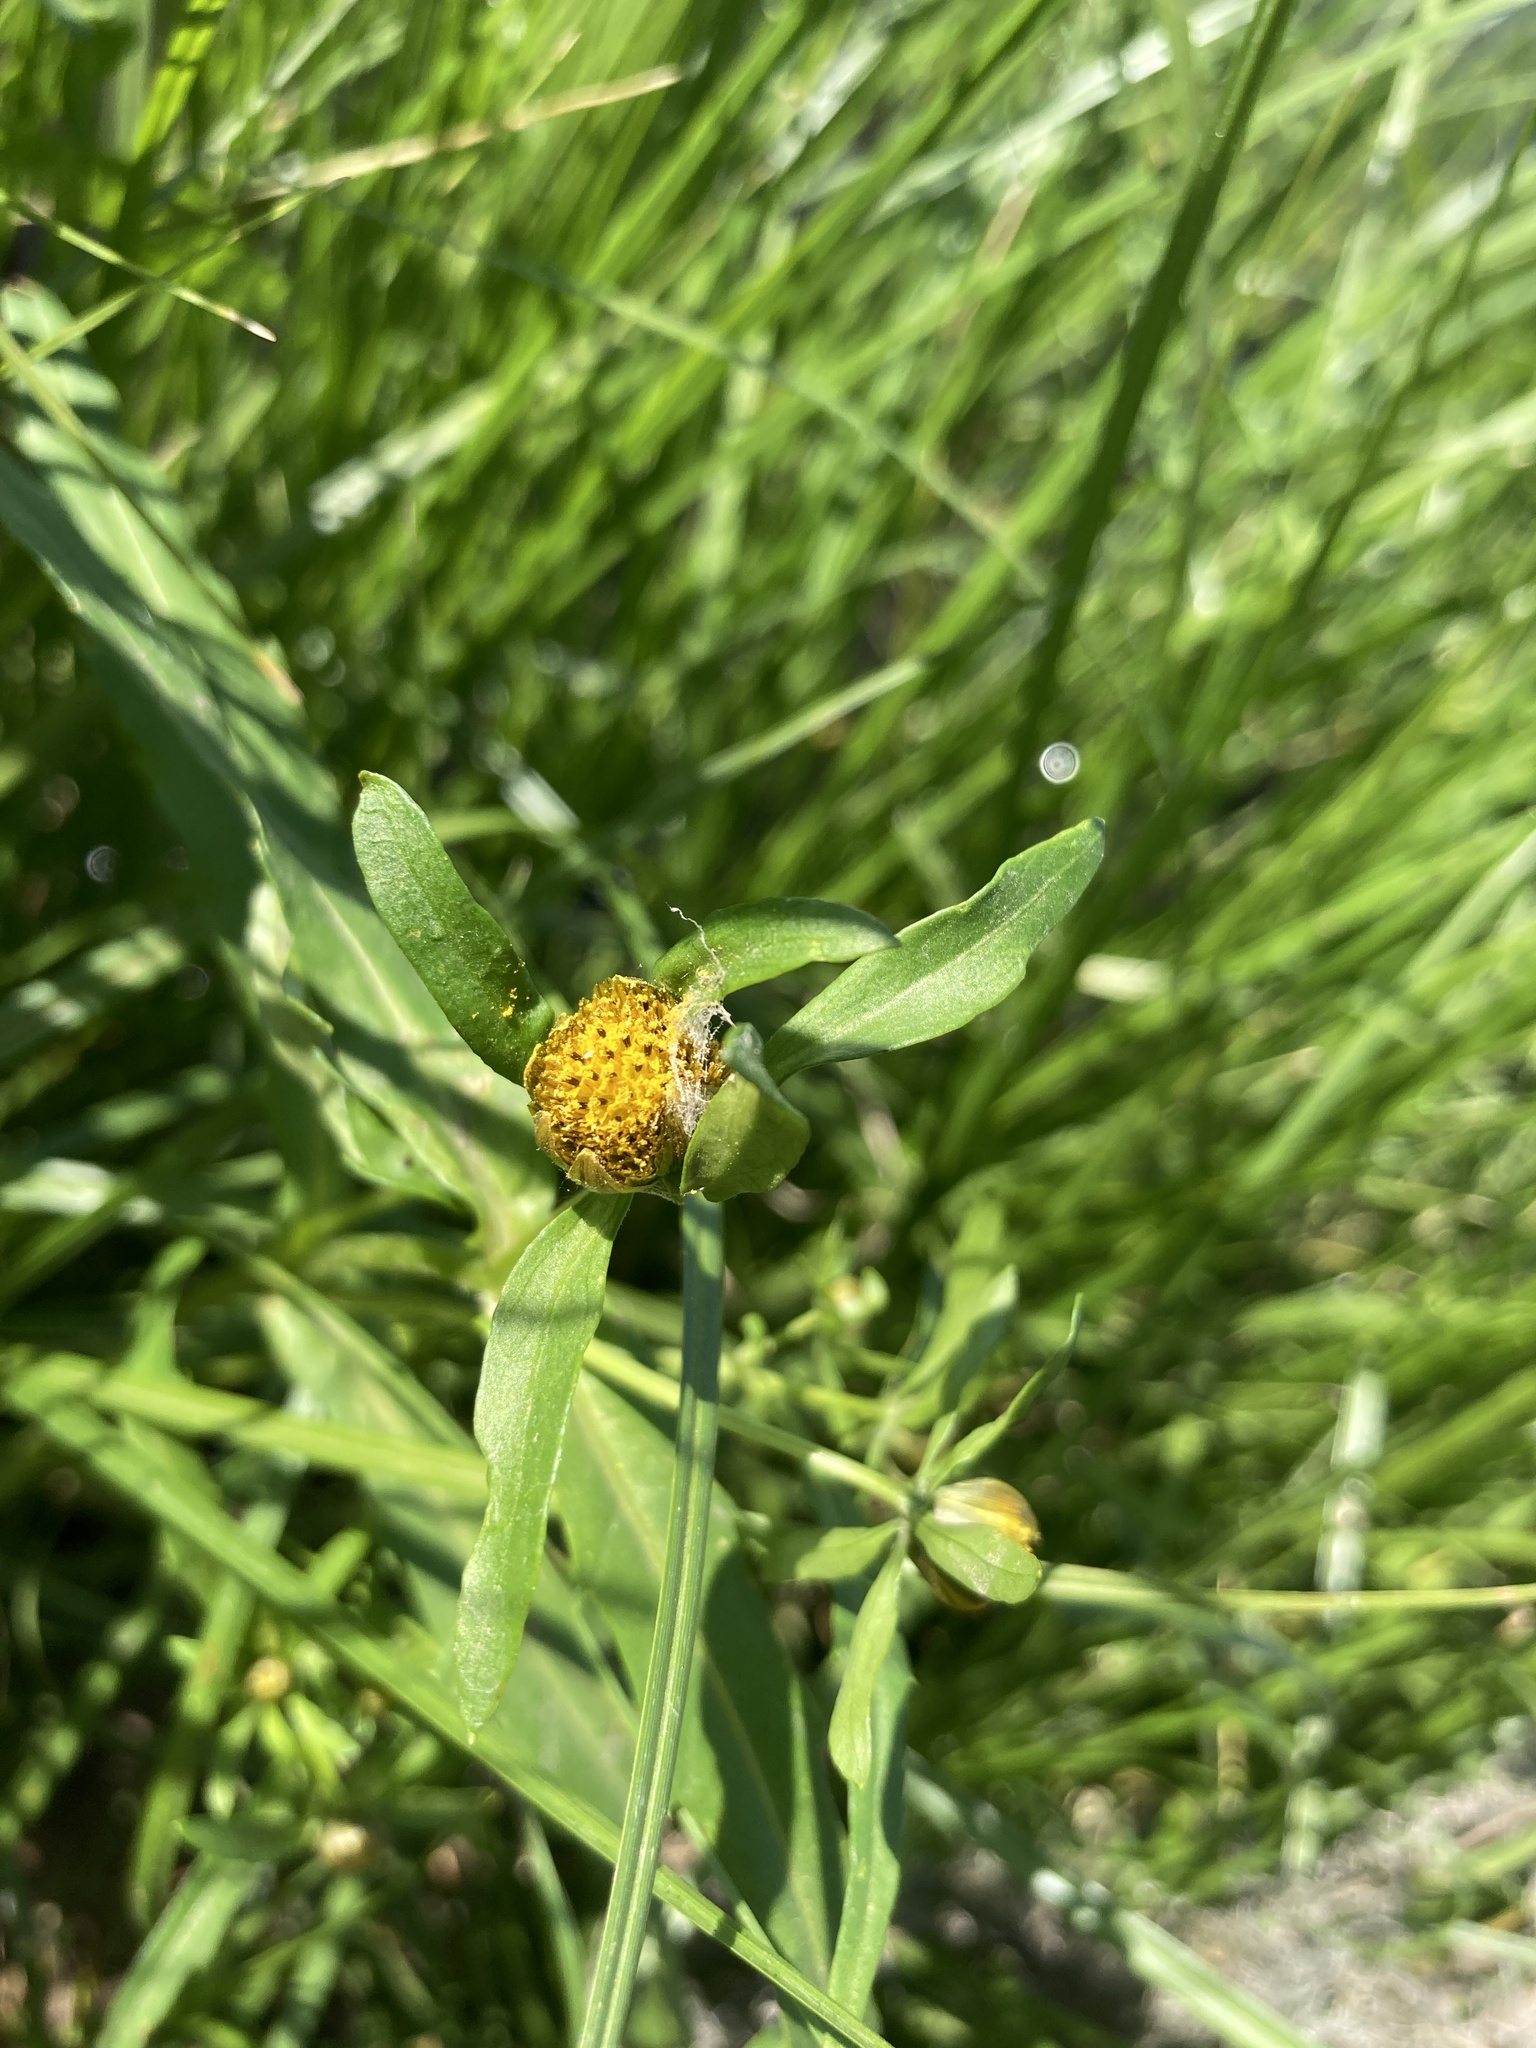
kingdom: Plantae
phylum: Tracheophyta
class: Magnoliopsida
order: Asterales
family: Asteraceae
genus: Bidens
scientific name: Bidens cernua
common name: Nodding bur-marigold
